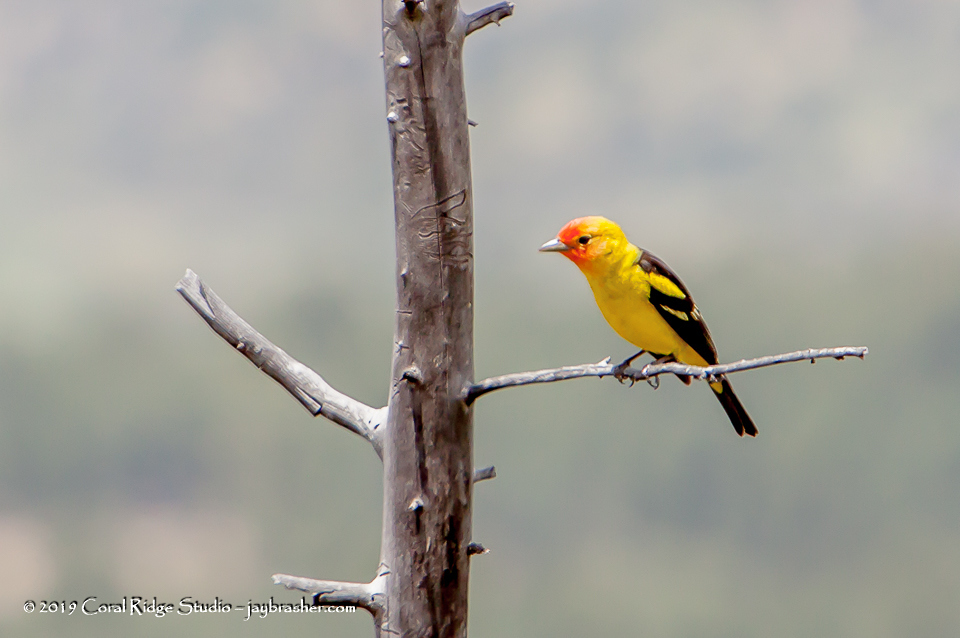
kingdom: Animalia
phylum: Chordata
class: Aves
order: Passeriformes
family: Cardinalidae
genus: Piranga
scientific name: Piranga ludoviciana
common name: Western tanager
